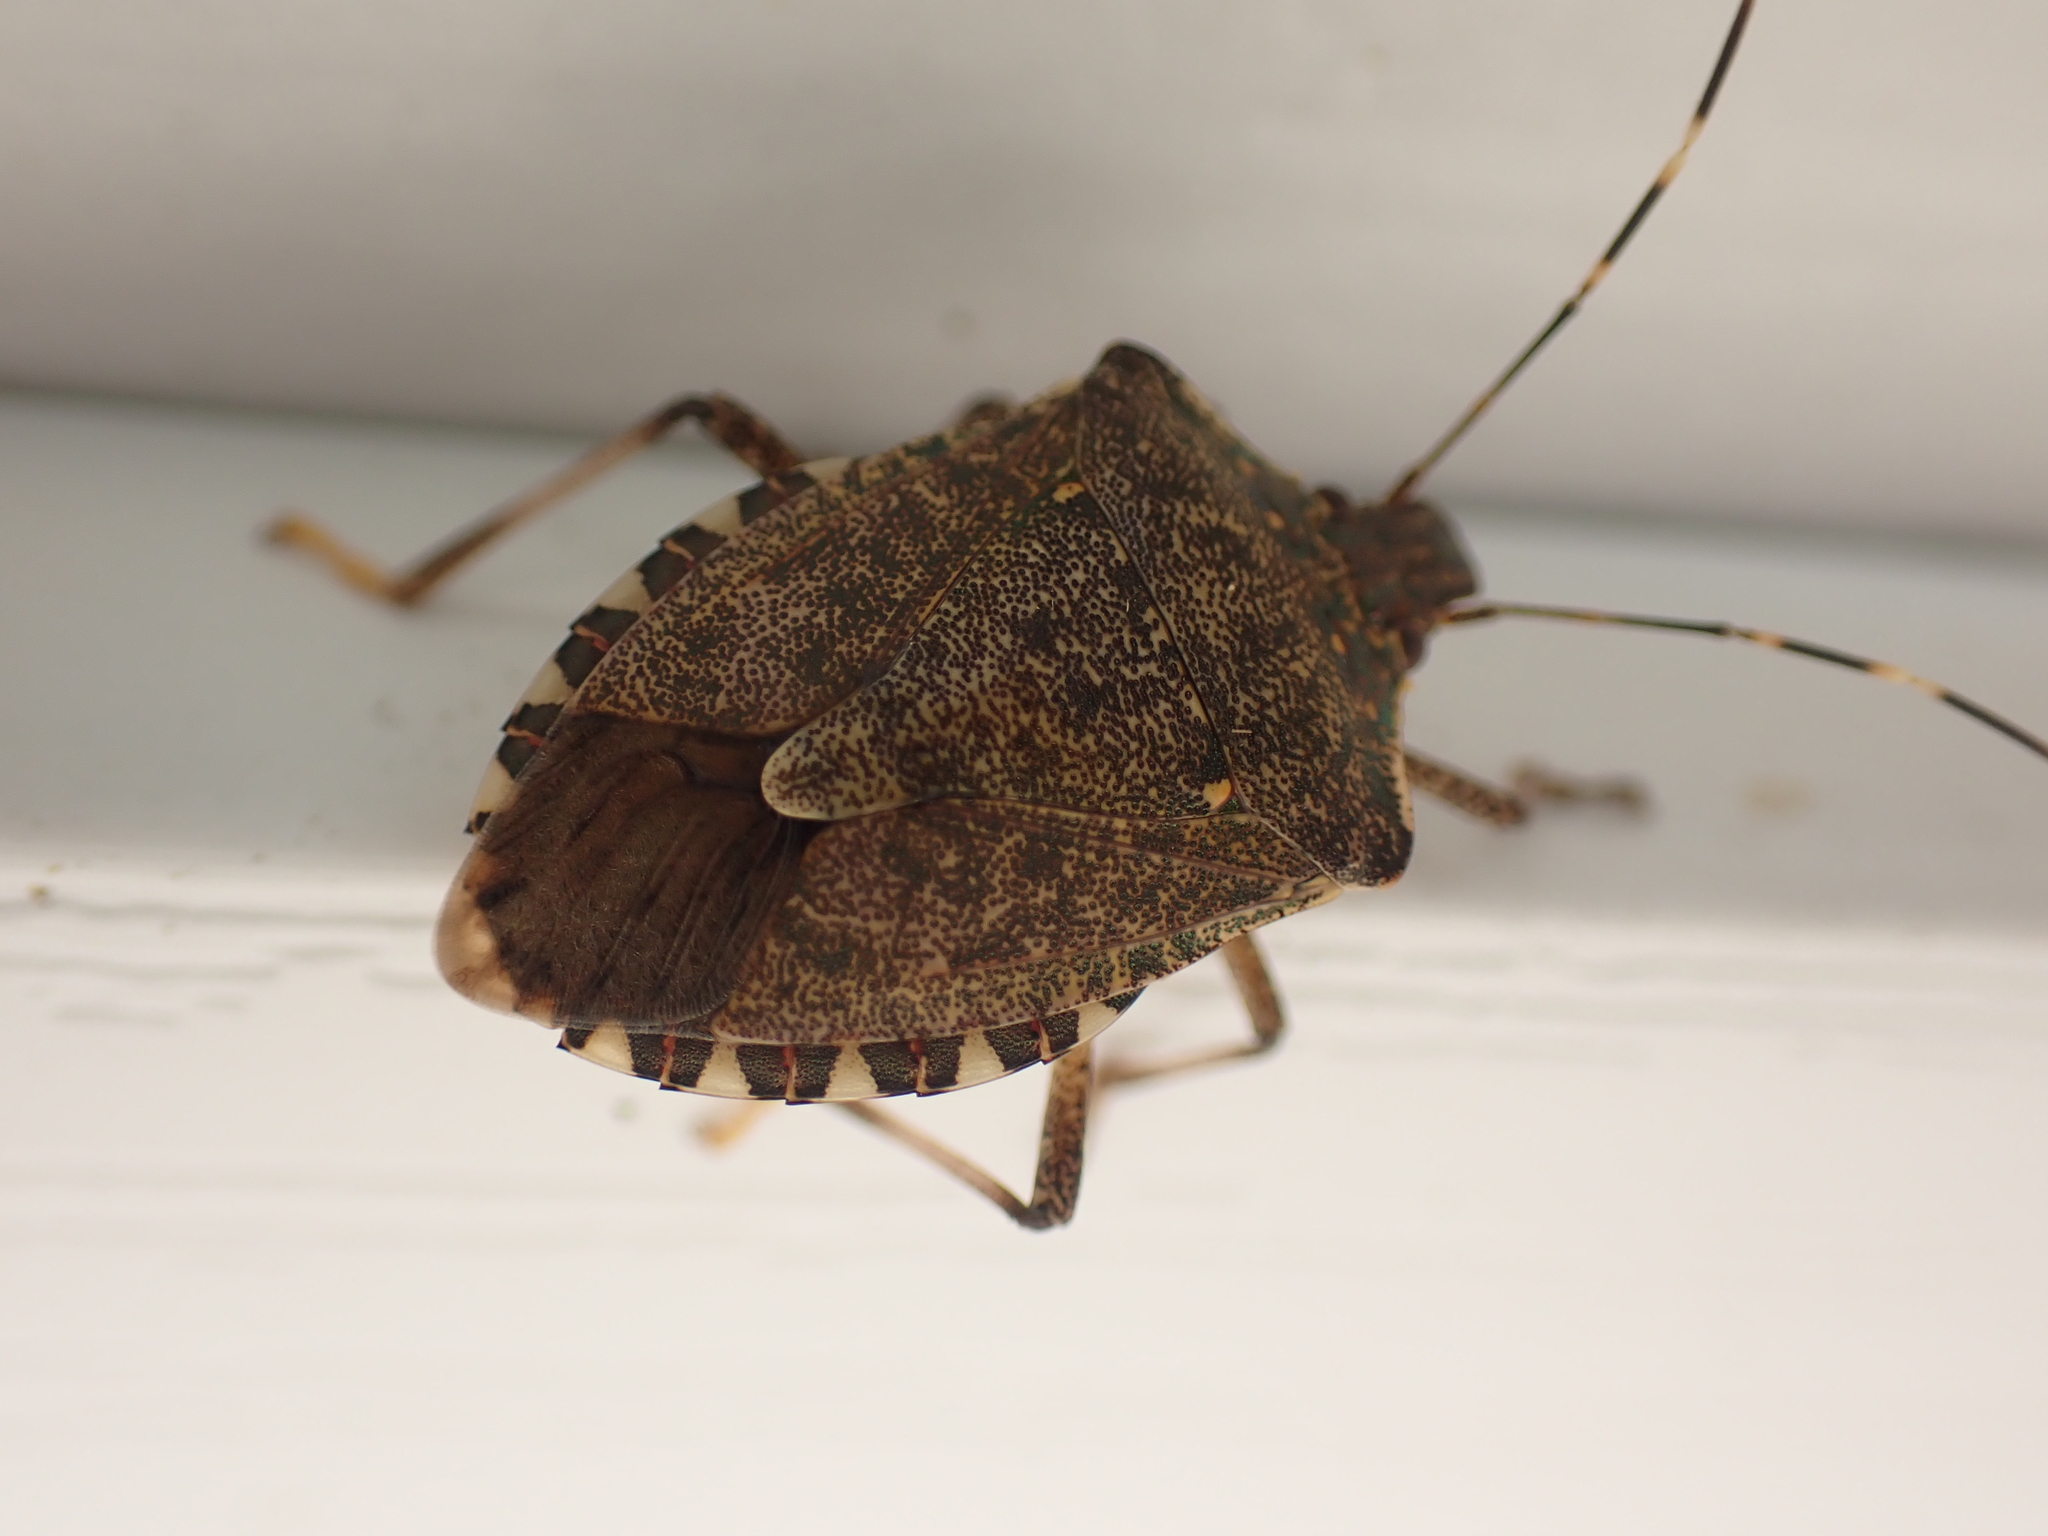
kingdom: Animalia
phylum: Arthropoda
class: Insecta
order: Hemiptera
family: Pentatomidae
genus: Halyomorpha
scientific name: Halyomorpha halys
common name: Brown marmorated stink bug
